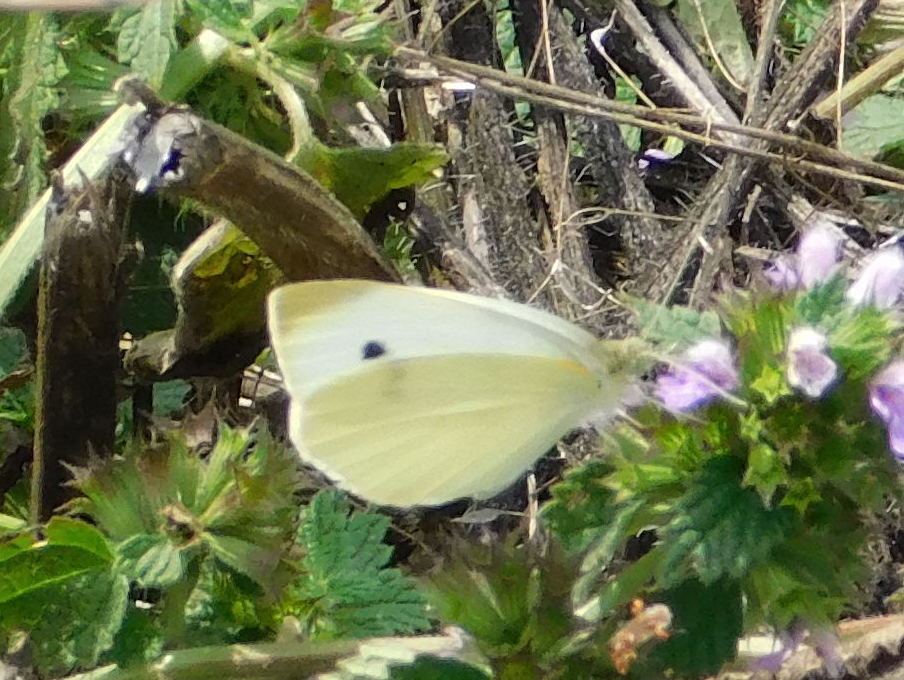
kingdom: Animalia
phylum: Arthropoda
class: Insecta
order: Lepidoptera
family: Pieridae
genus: Pieris
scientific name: Pieris rapae
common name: Small white
